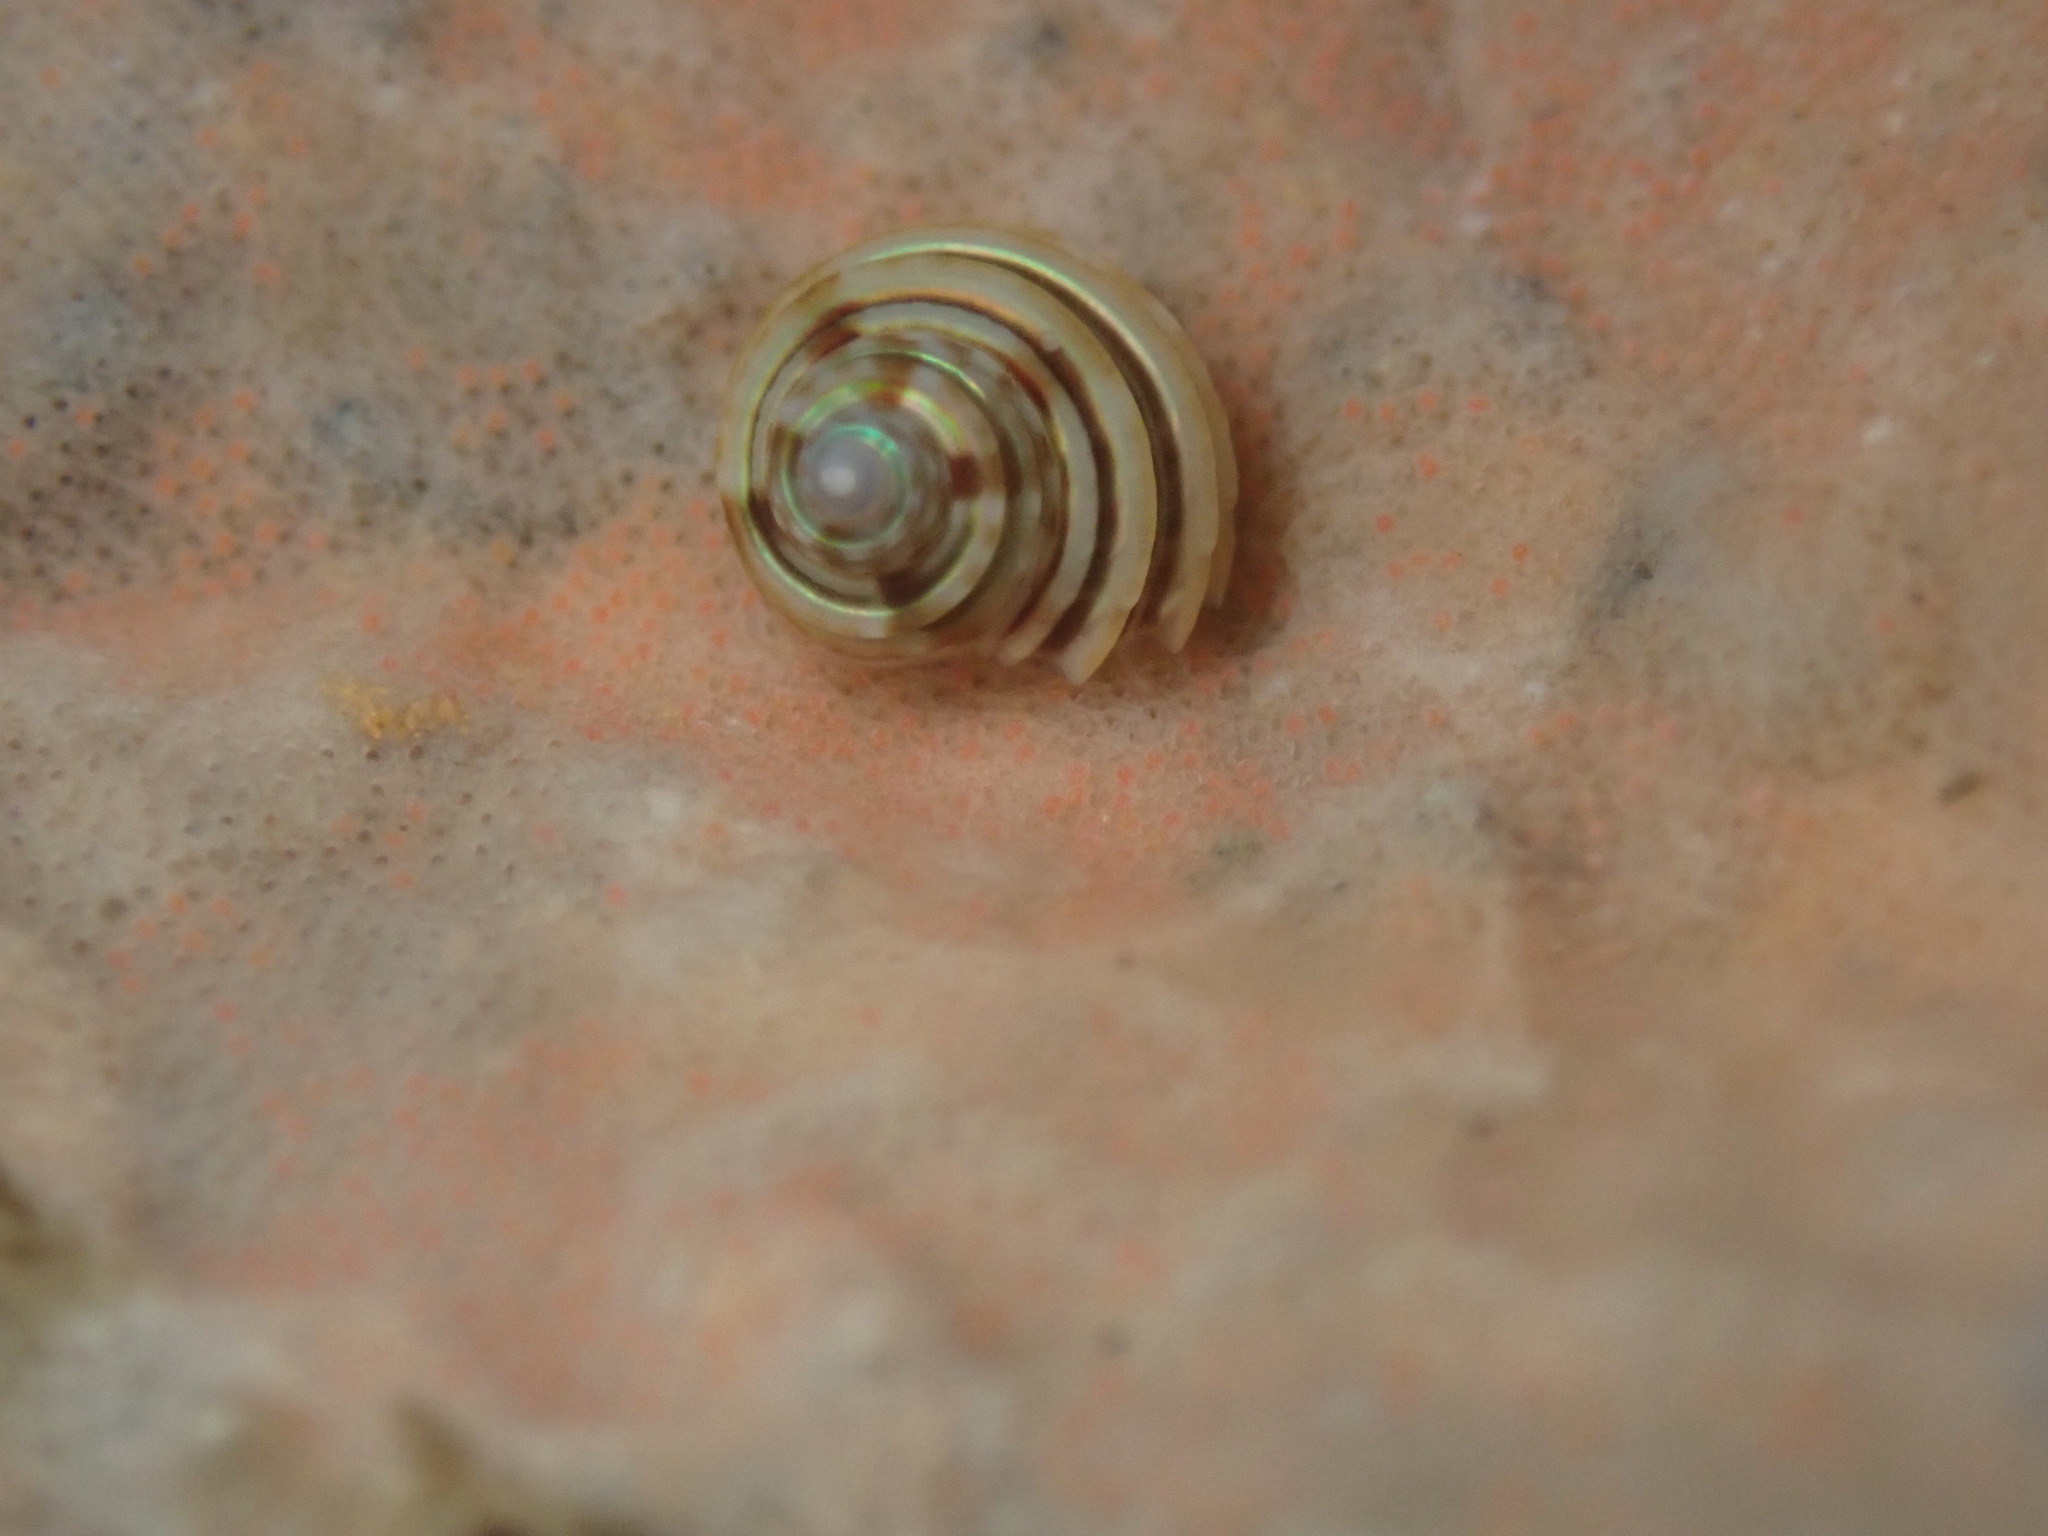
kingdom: Animalia
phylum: Mollusca
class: Gastropoda
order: Trochida
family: Calliostomatidae
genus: Calliostoma
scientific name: Calliostoma canaliculatum
